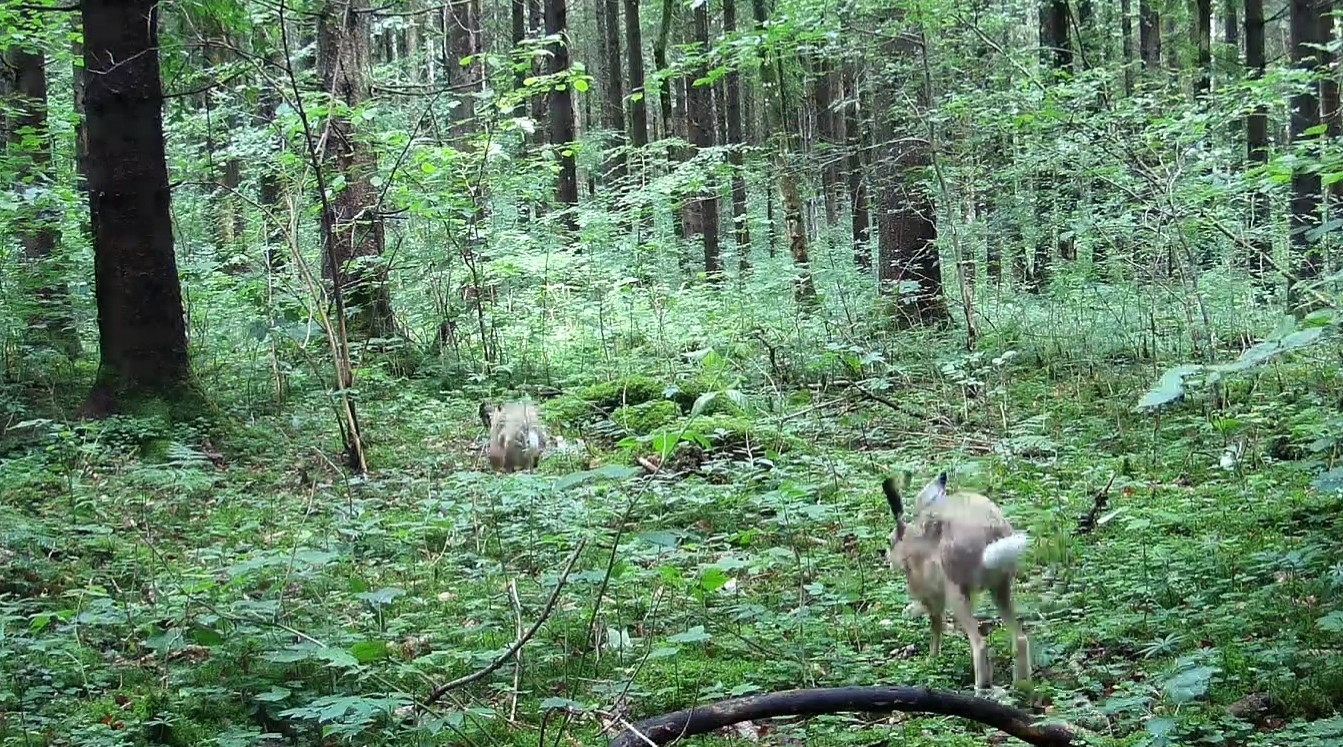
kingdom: Animalia
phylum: Chordata
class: Mammalia
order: Lagomorpha
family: Leporidae
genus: Lepus
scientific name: Lepus europaeus
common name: European hare
